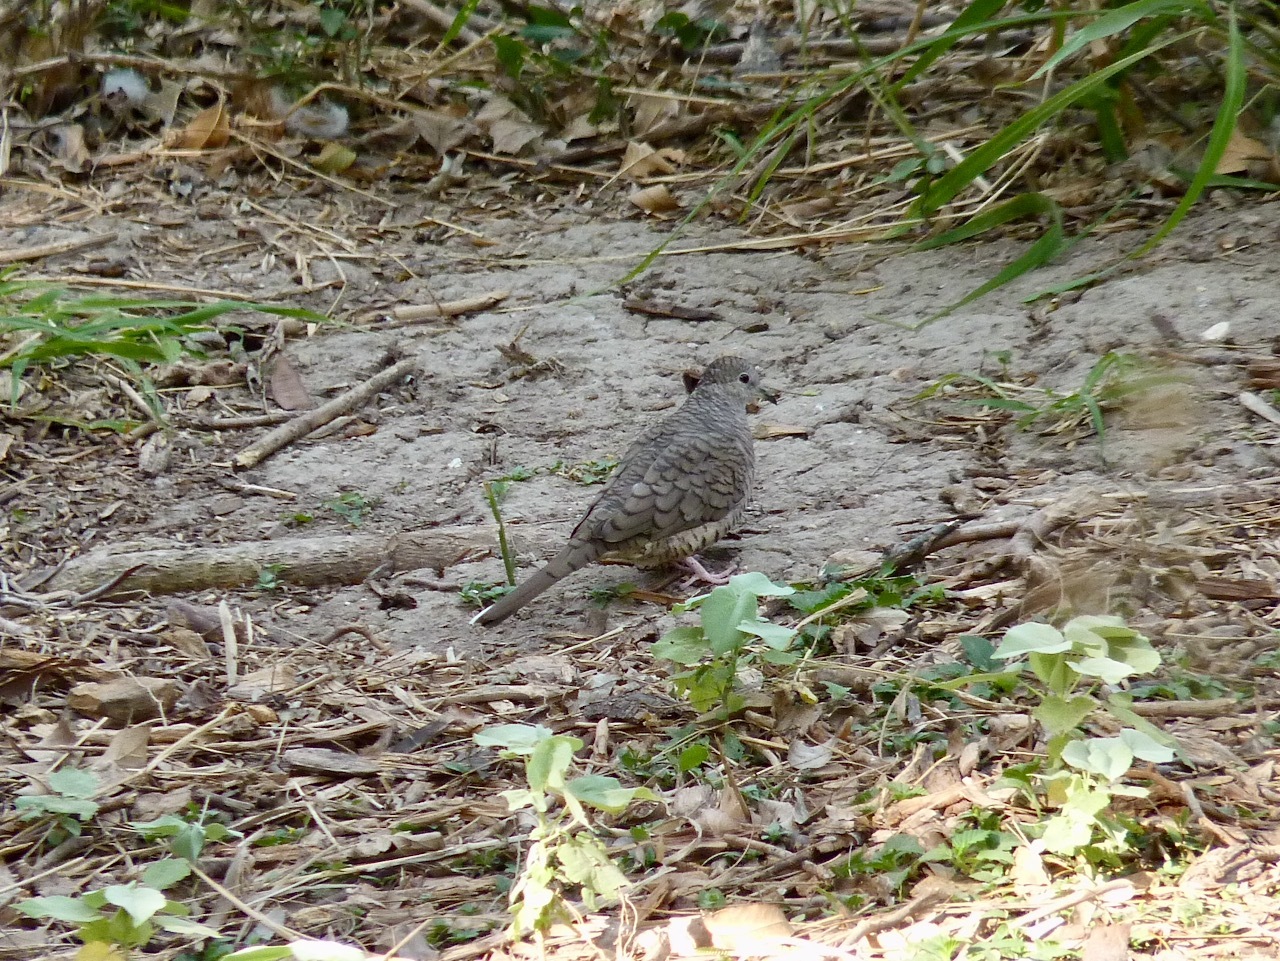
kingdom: Animalia
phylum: Chordata
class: Aves
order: Columbiformes
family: Columbidae
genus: Columbina
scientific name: Columbina inca
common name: Inca dove
